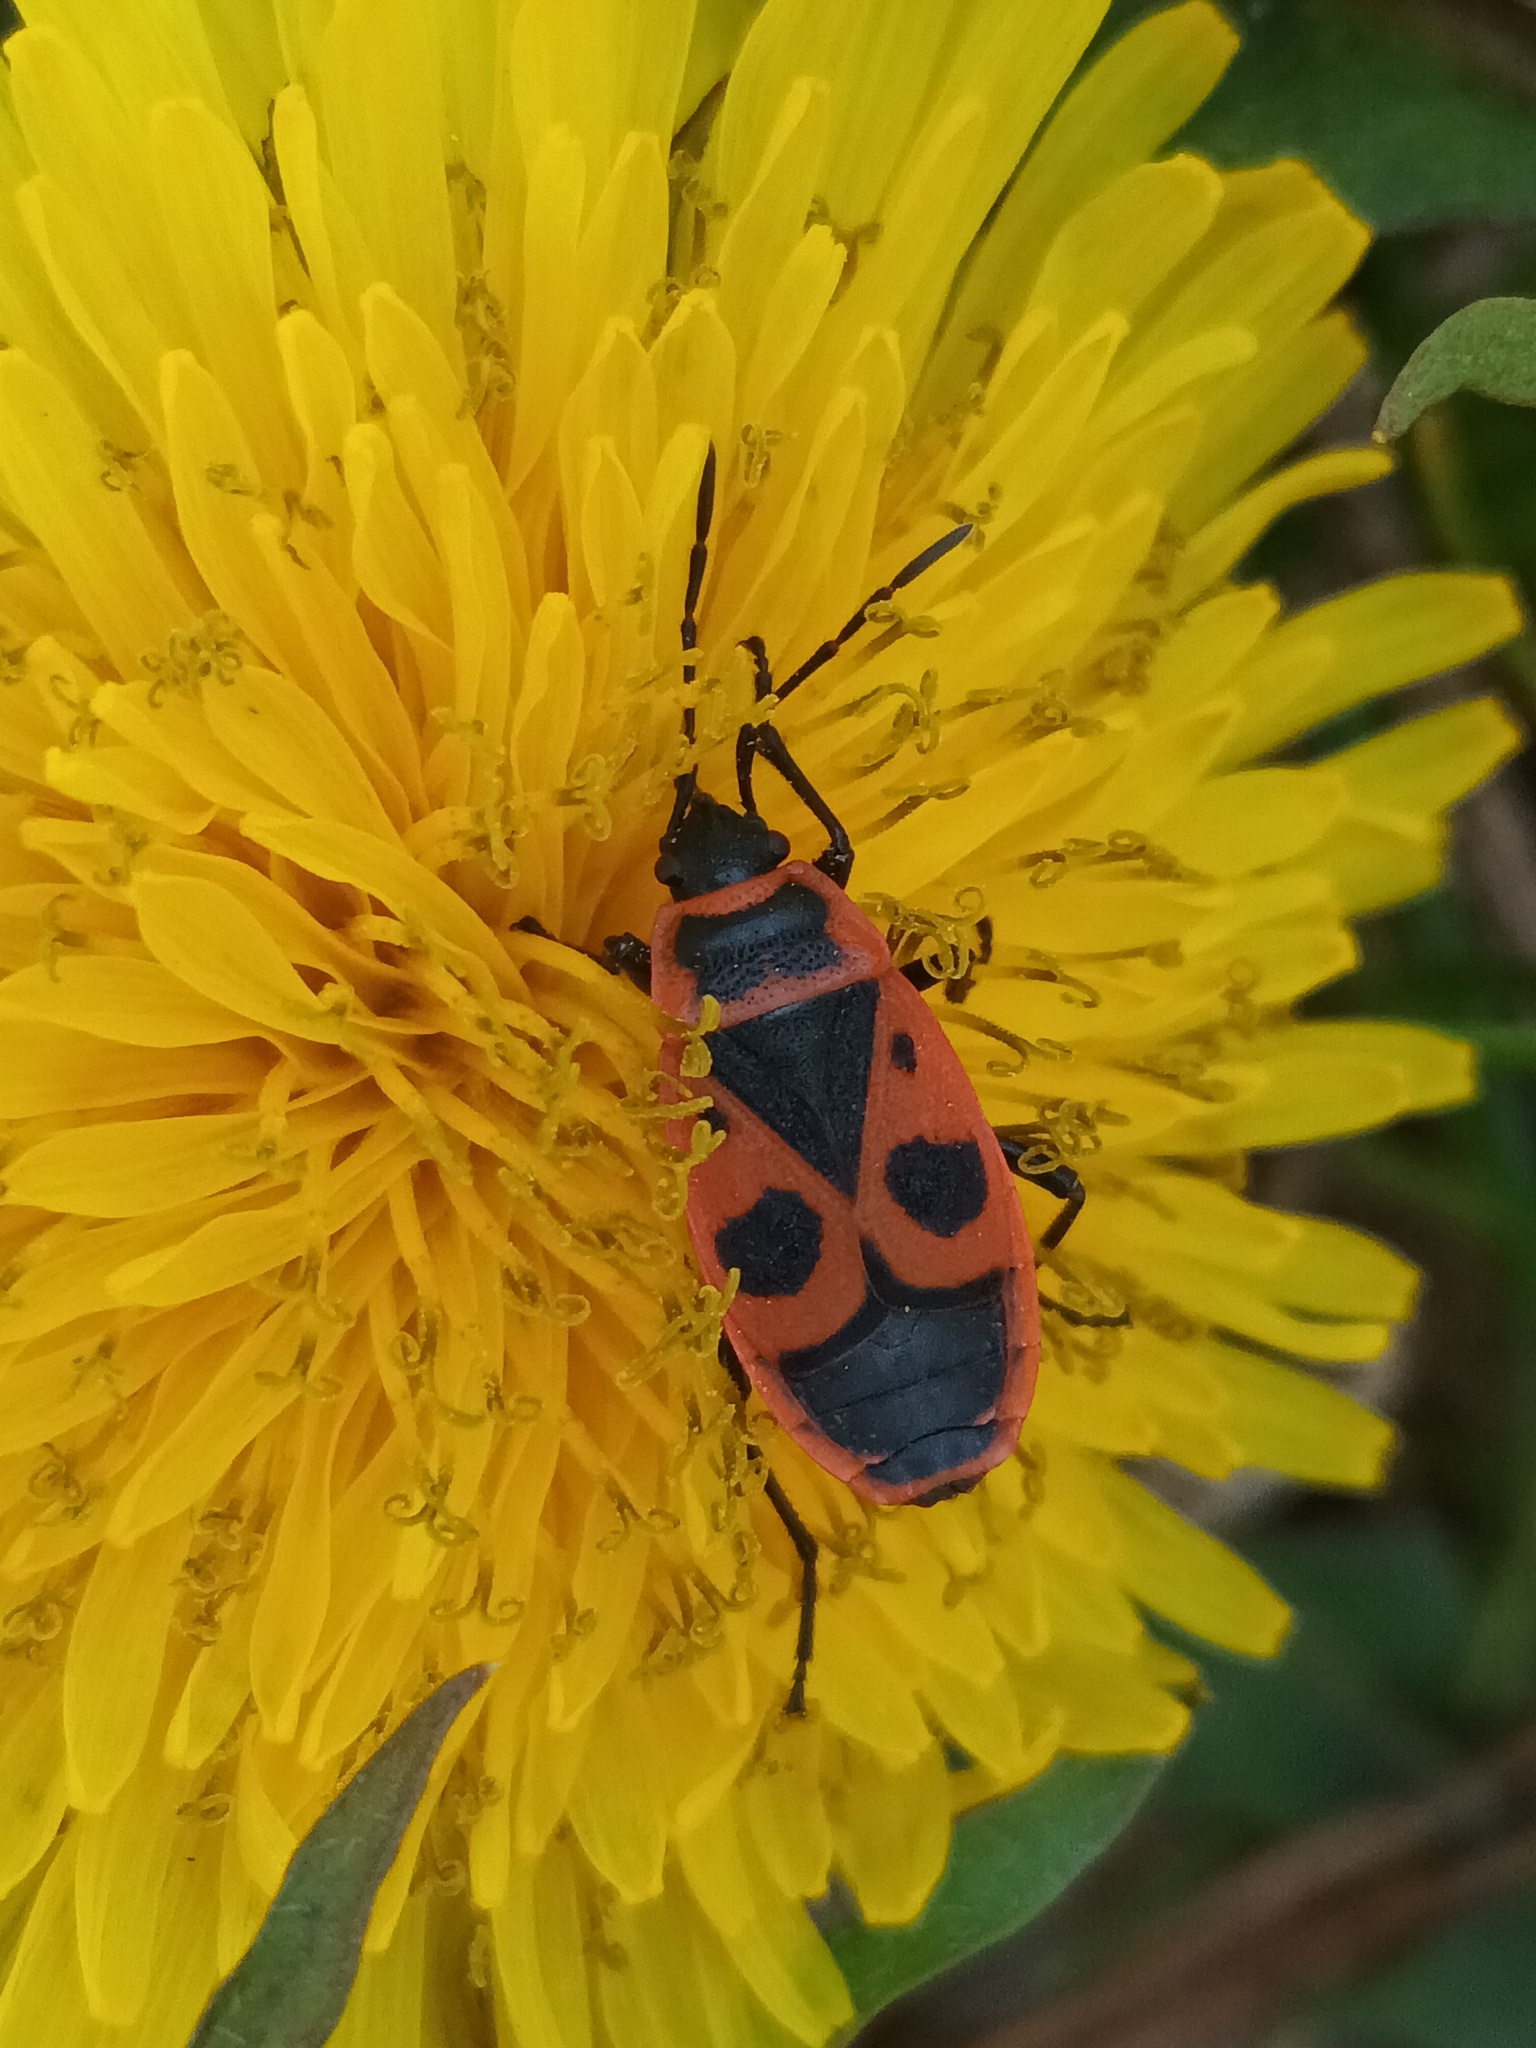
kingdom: Animalia
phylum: Arthropoda
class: Insecta
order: Hemiptera
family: Pyrrhocoridae
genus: Pyrrhocoris
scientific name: Pyrrhocoris apterus
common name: Firebug
